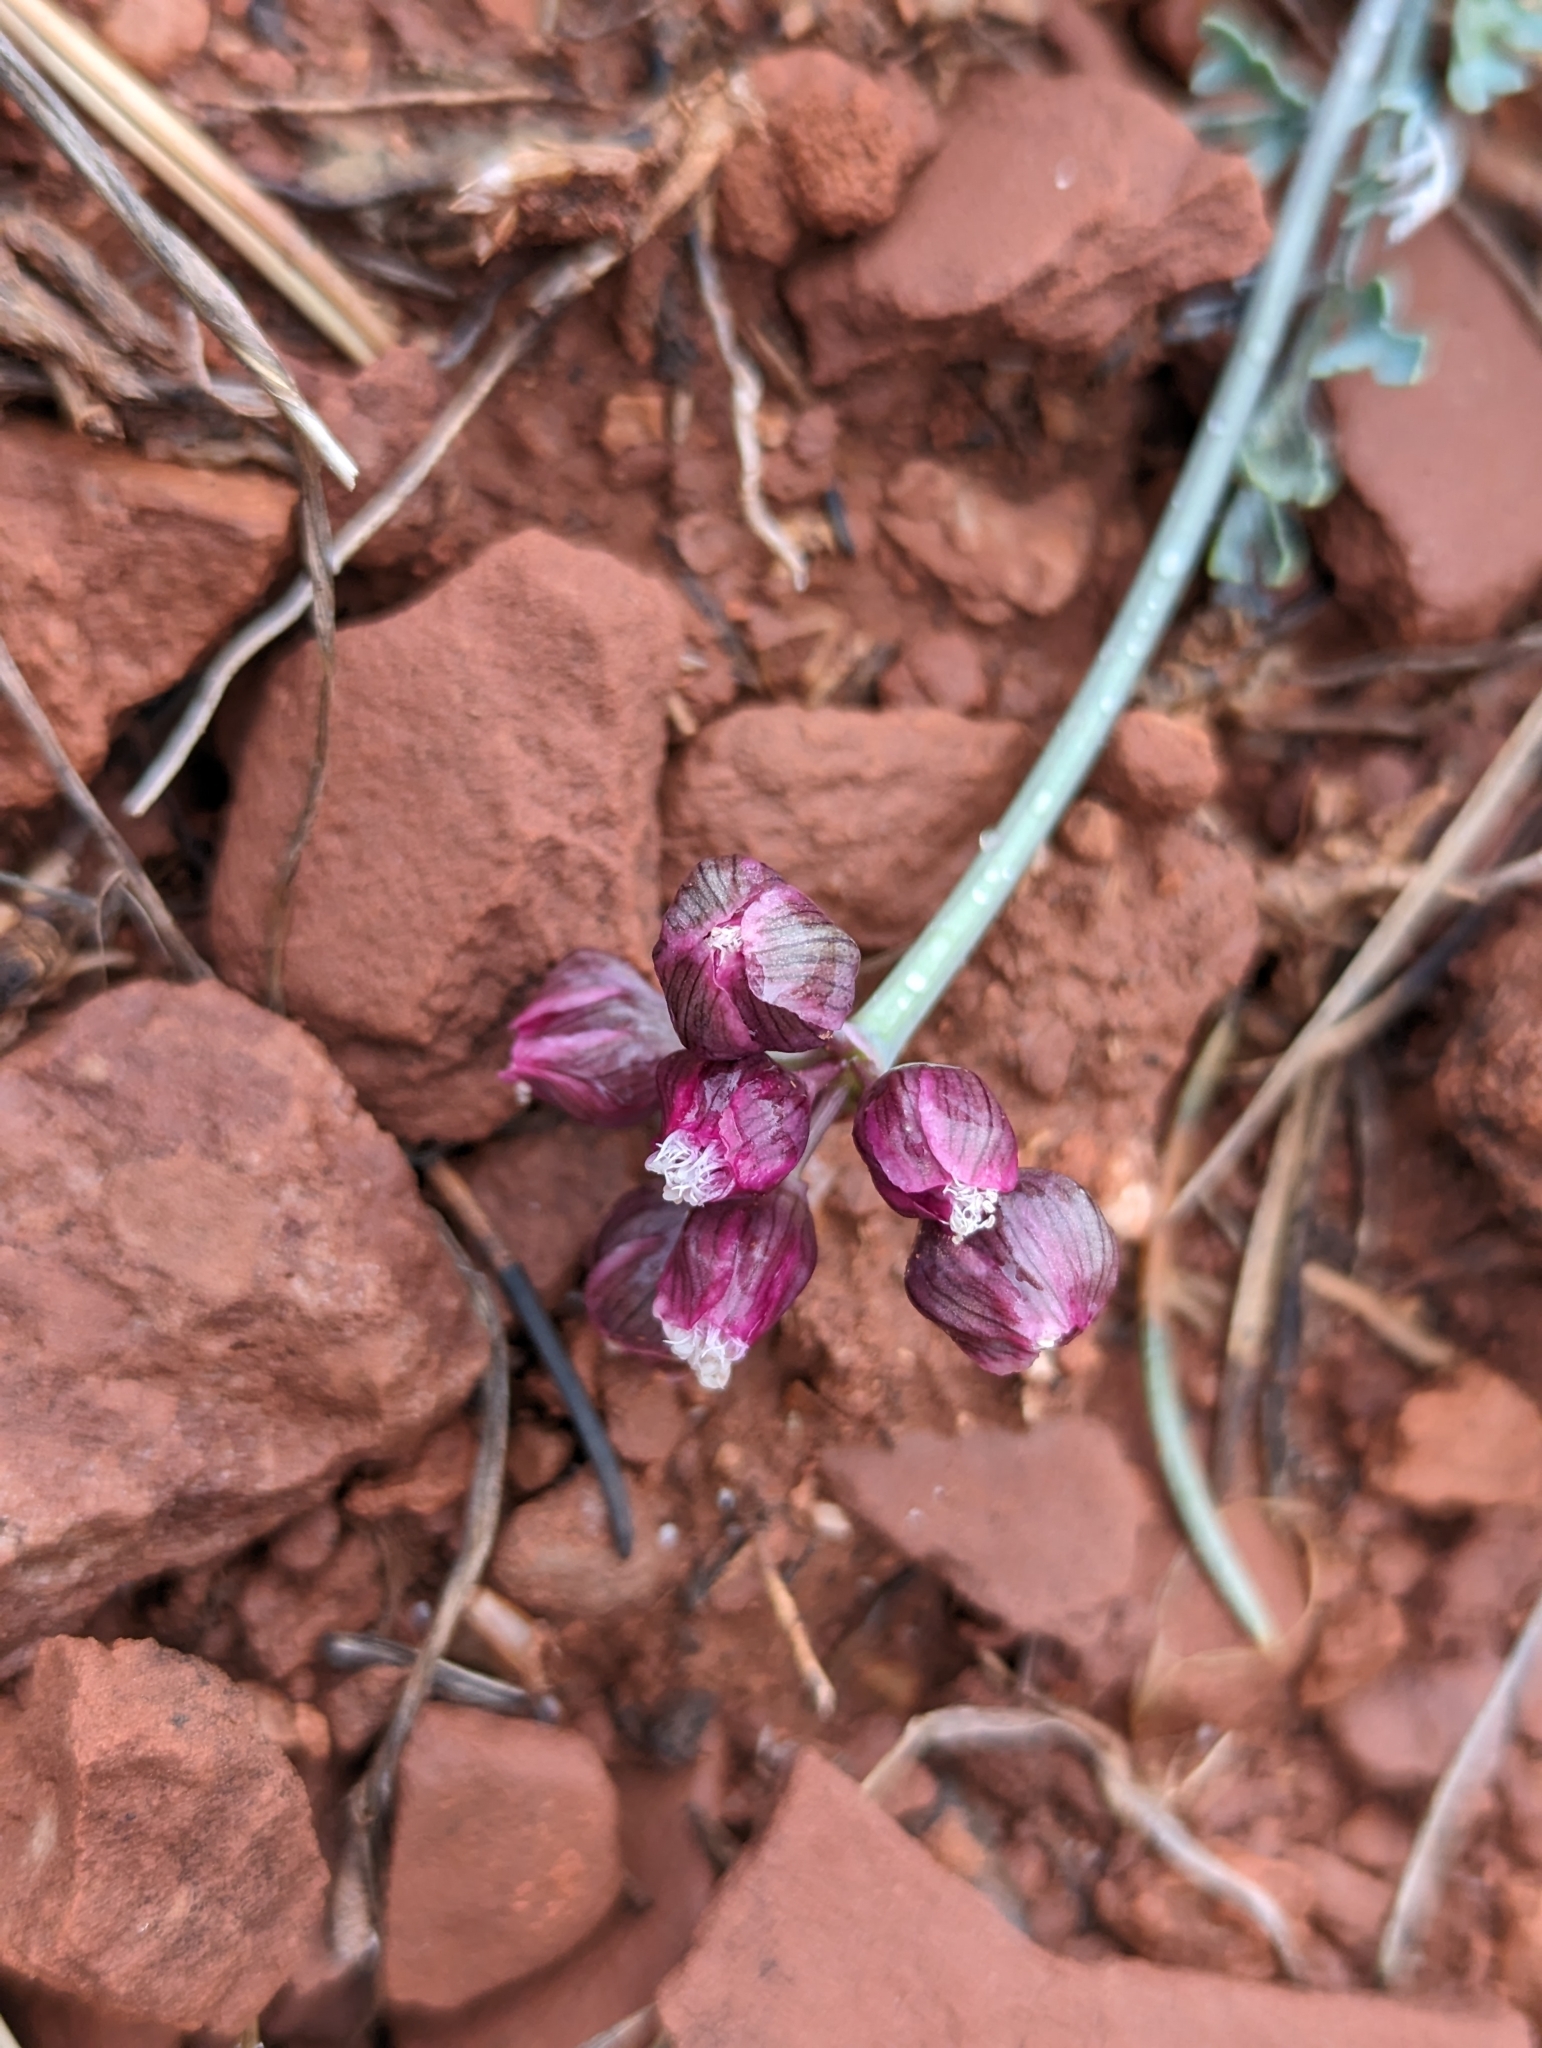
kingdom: Plantae
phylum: Tracheophyta
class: Magnoliopsida
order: Apiales
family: Apiaceae
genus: Vesper
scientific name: Vesper multinervatus
